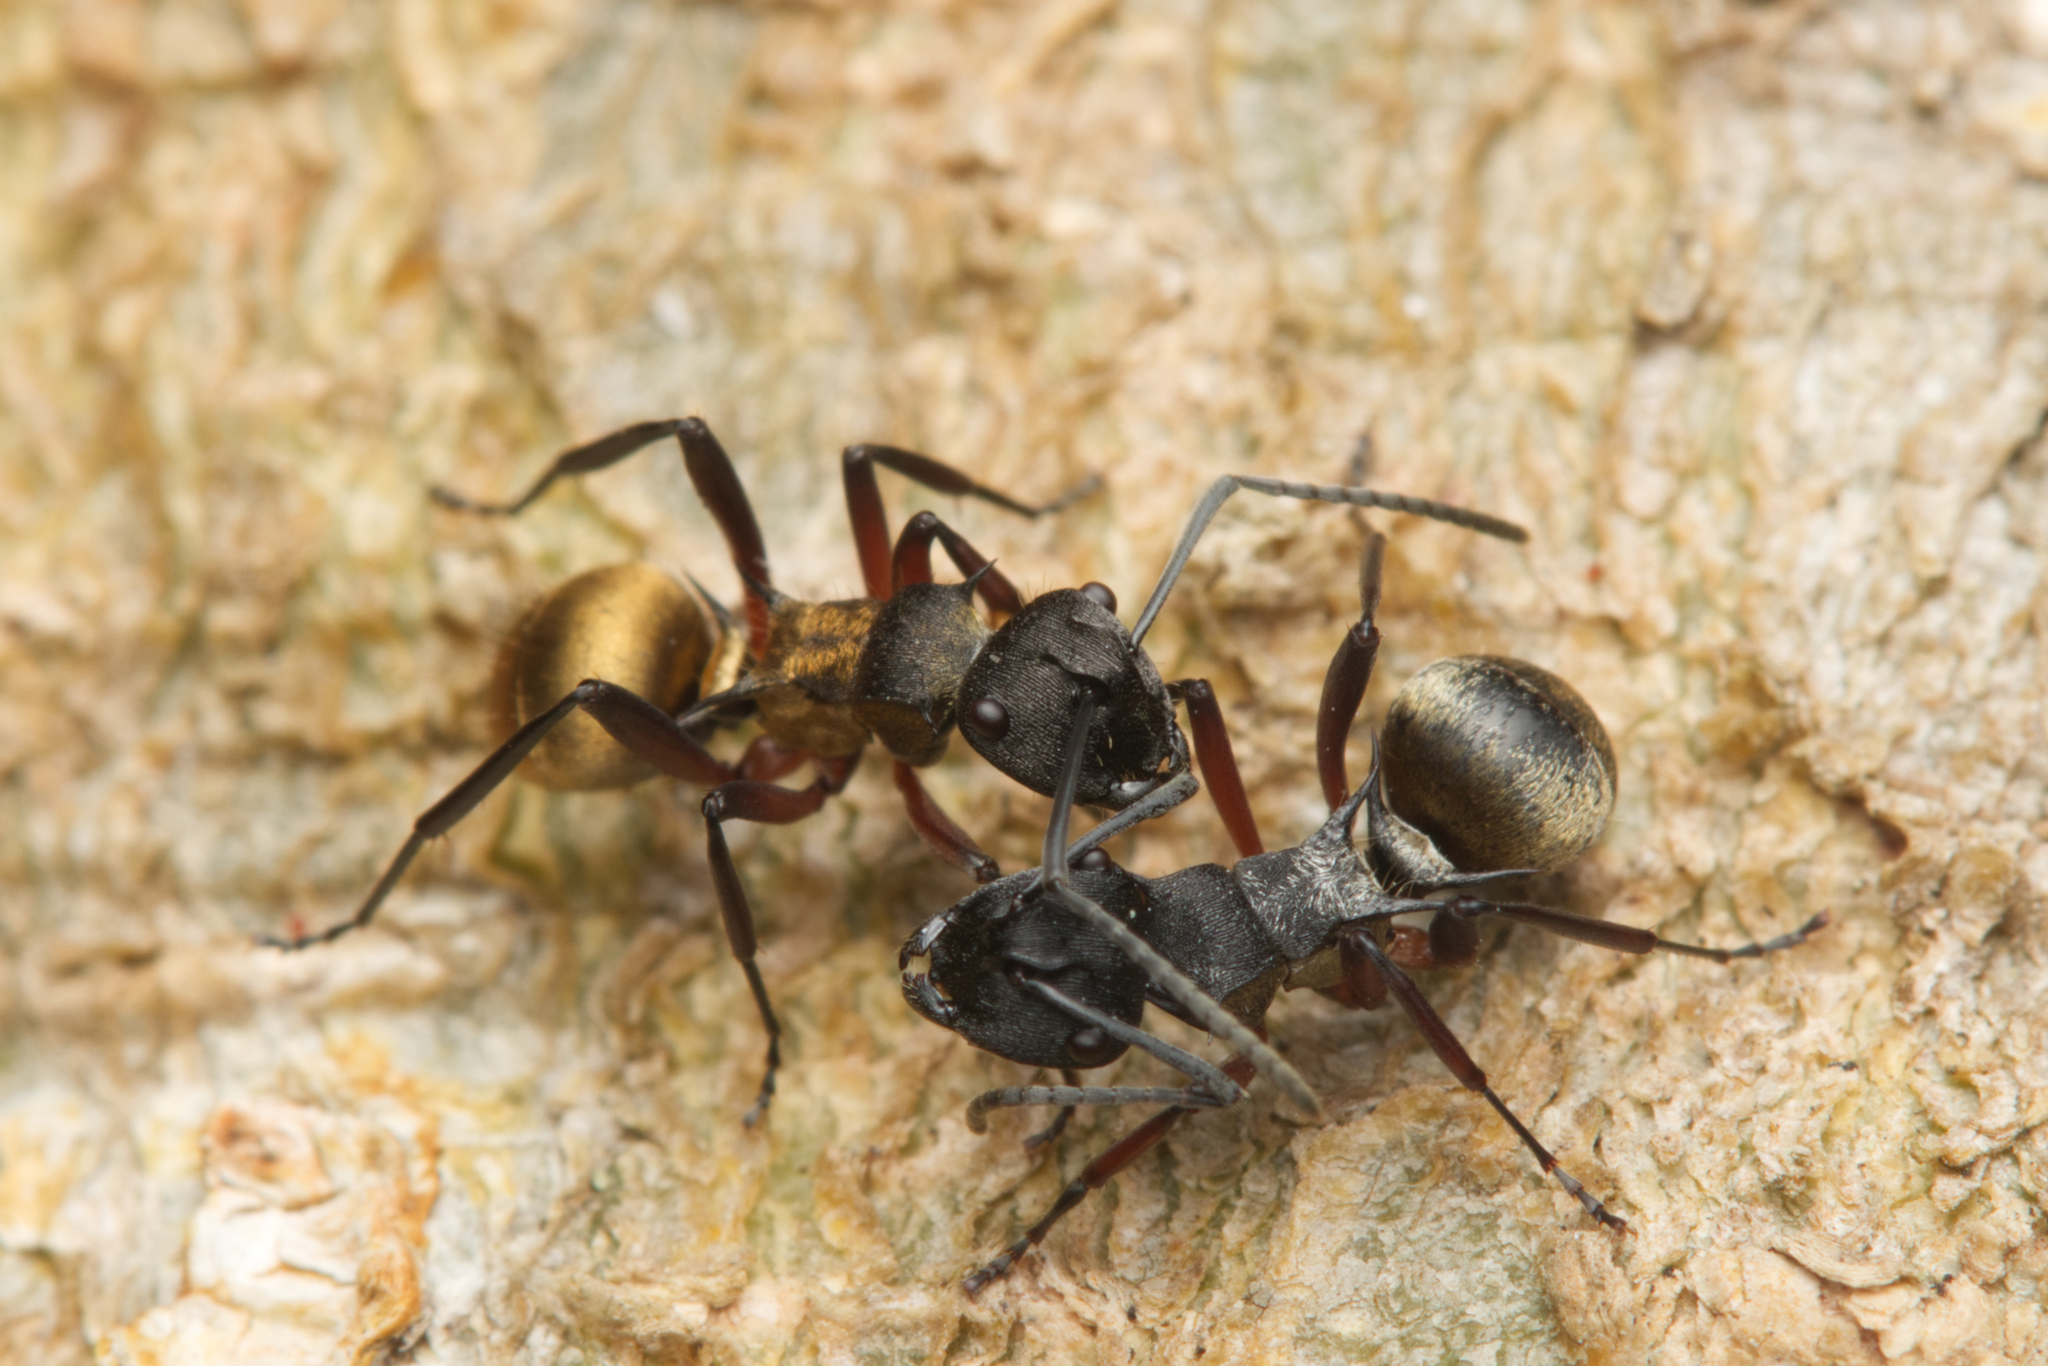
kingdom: Animalia
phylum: Arthropoda
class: Insecta
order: Hymenoptera
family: Formicidae
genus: Polyrhachis
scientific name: Polyrhachis rufifemur
